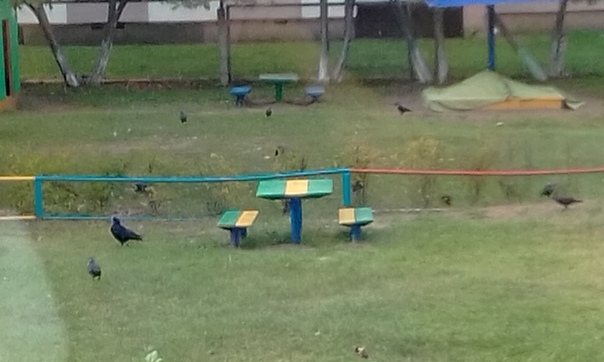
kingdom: Animalia
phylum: Chordata
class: Aves
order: Passeriformes
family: Corvidae
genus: Corvus
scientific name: Corvus frugilegus
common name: Rook
